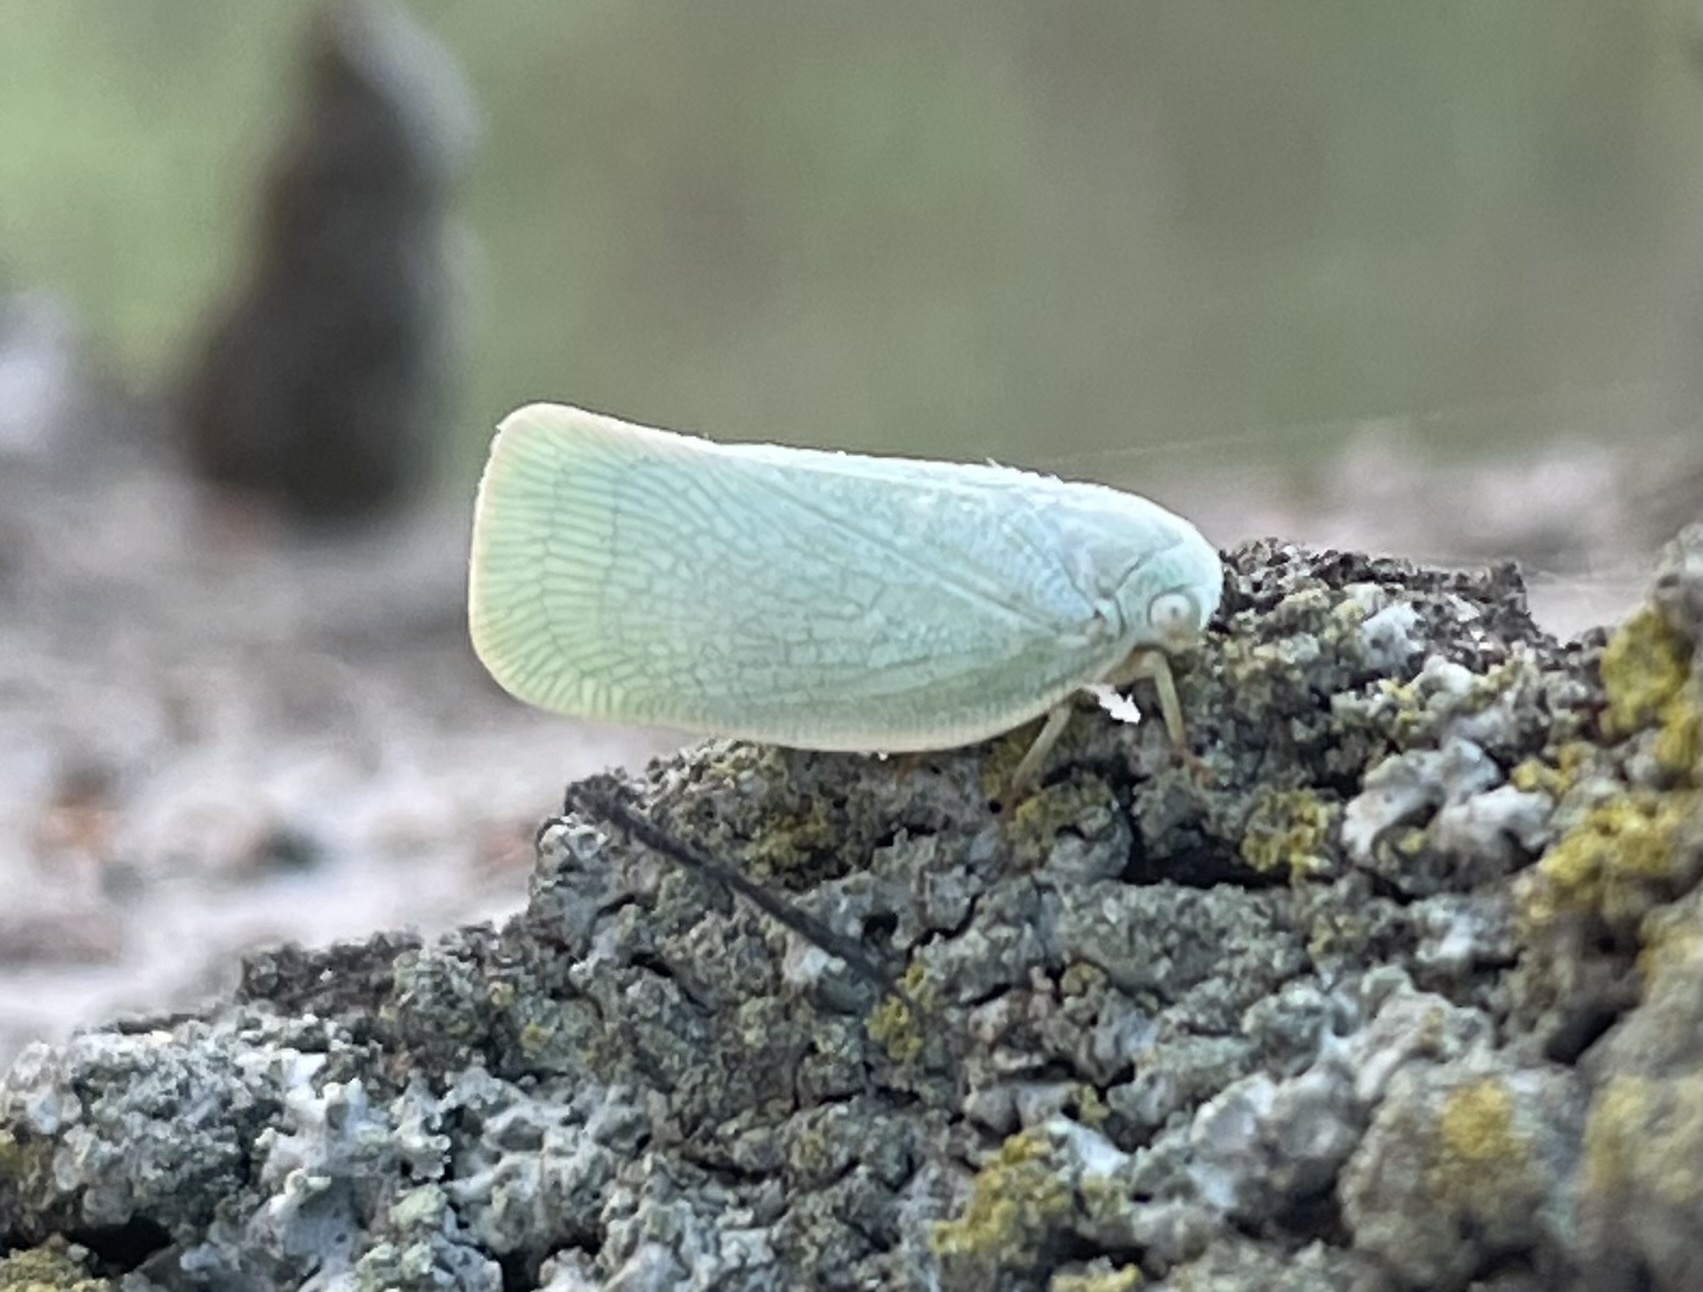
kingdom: Animalia
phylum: Arthropoda
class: Insecta
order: Hemiptera
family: Flatidae
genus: Flatormenis
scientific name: Flatormenis proxima
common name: Northern flatid planthopper
